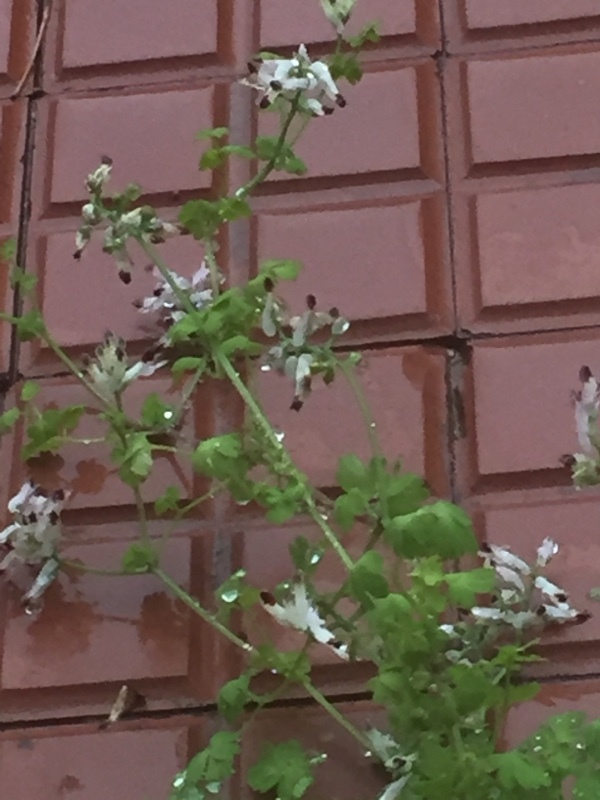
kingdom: Plantae
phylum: Tracheophyta
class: Magnoliopsida
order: Ranunculales
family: Papaveraceae
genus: Fumaria
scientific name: Fumaria capreolata
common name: White ramping-fumitory
